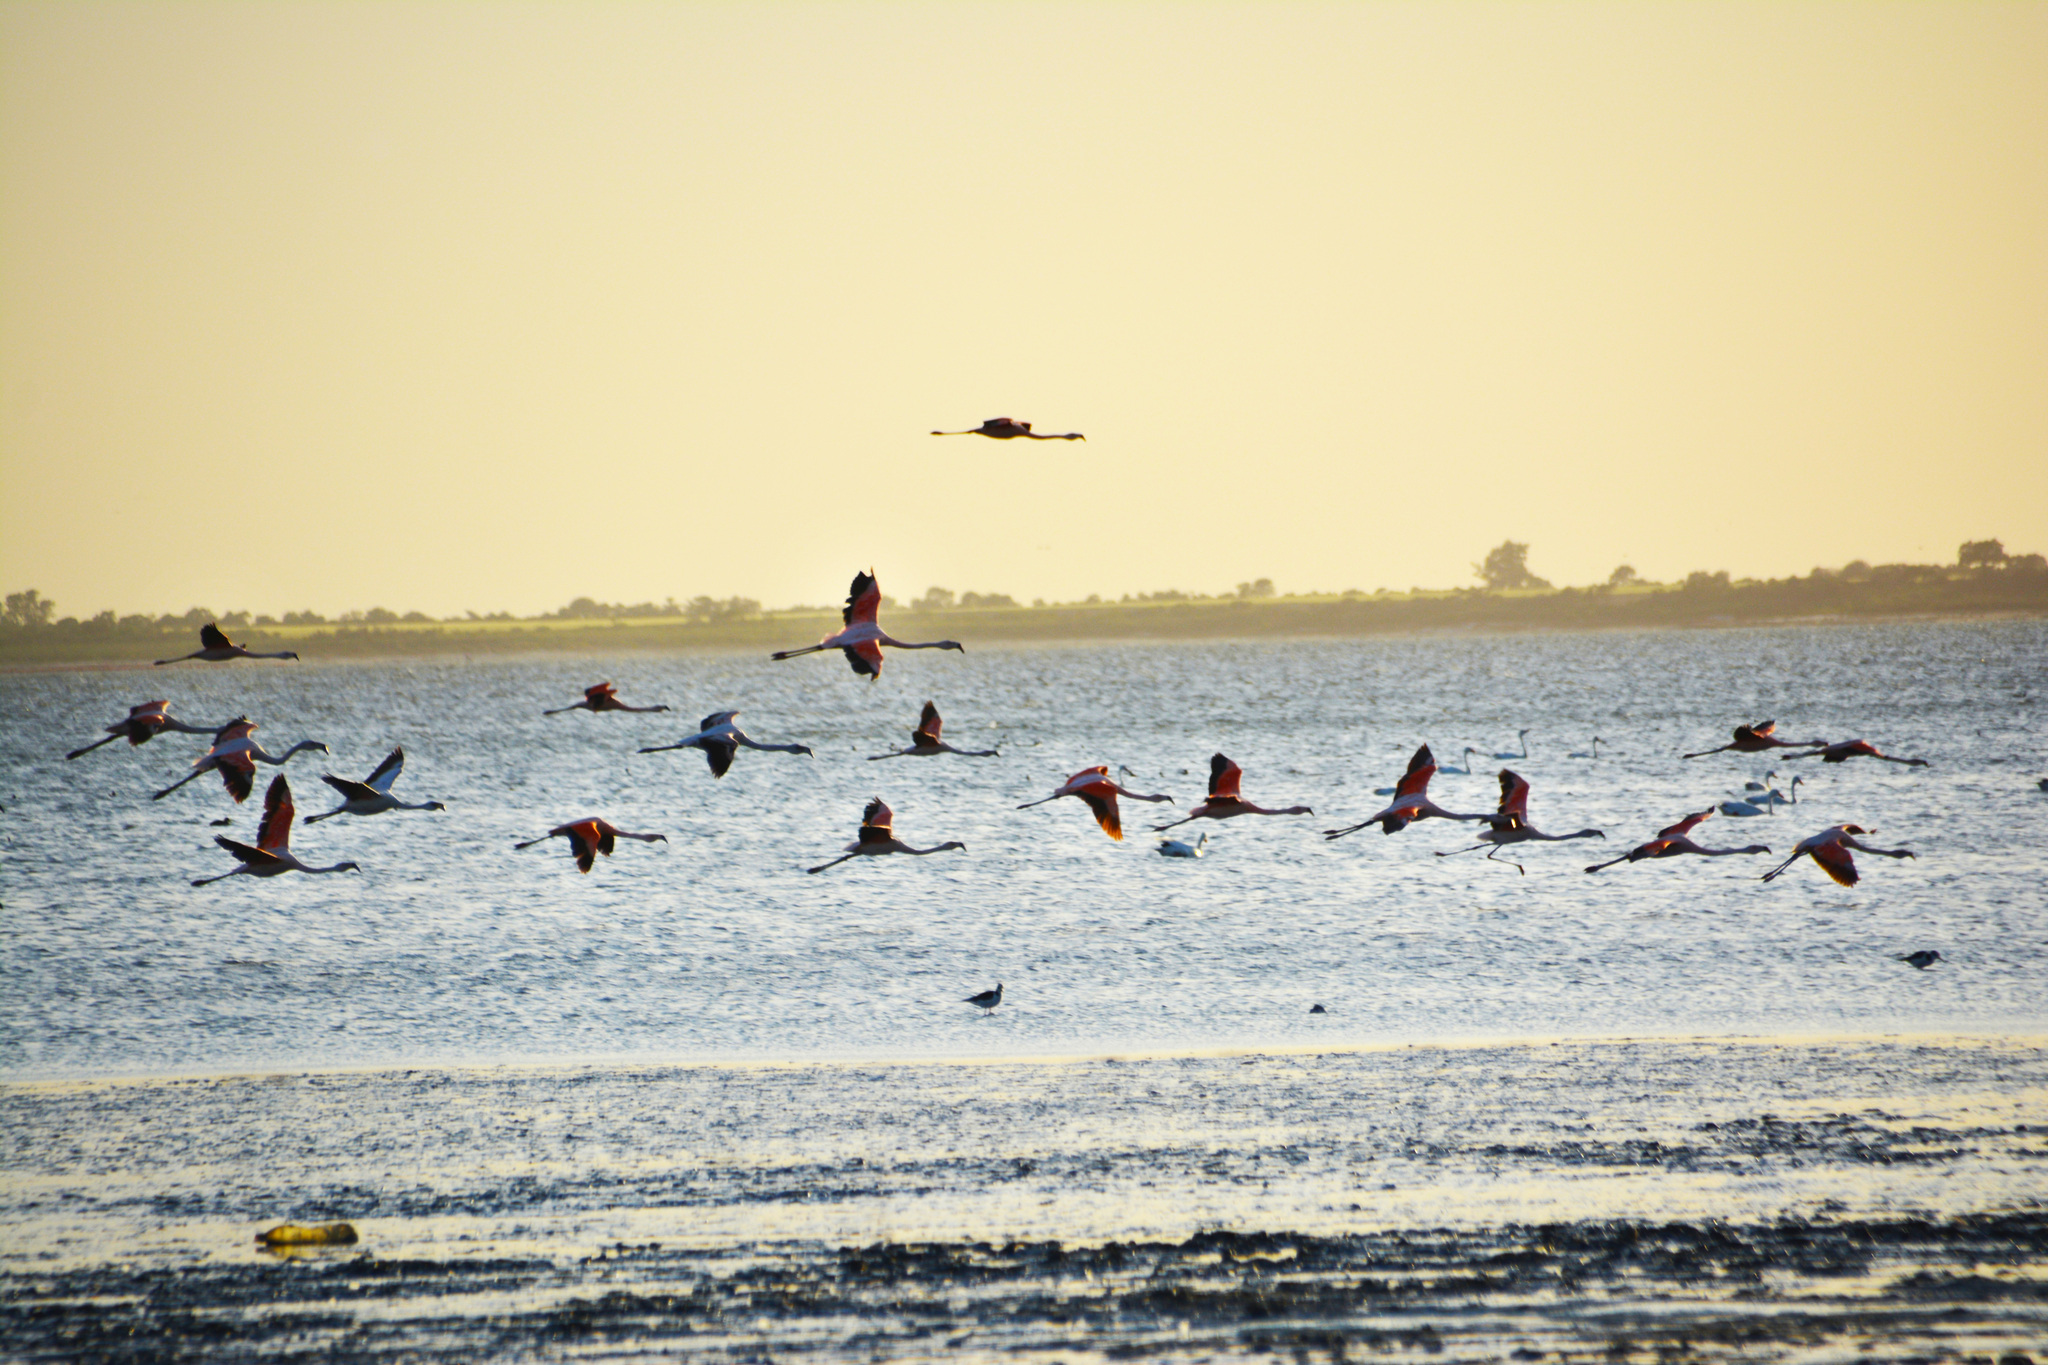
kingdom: Animalia
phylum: Chordata
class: Aves
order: Phoenicopteriformes
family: Phoenicopteridae
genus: Phoenicoparrus
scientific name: Phoenicoparrus jamesi
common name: James's flamingo
